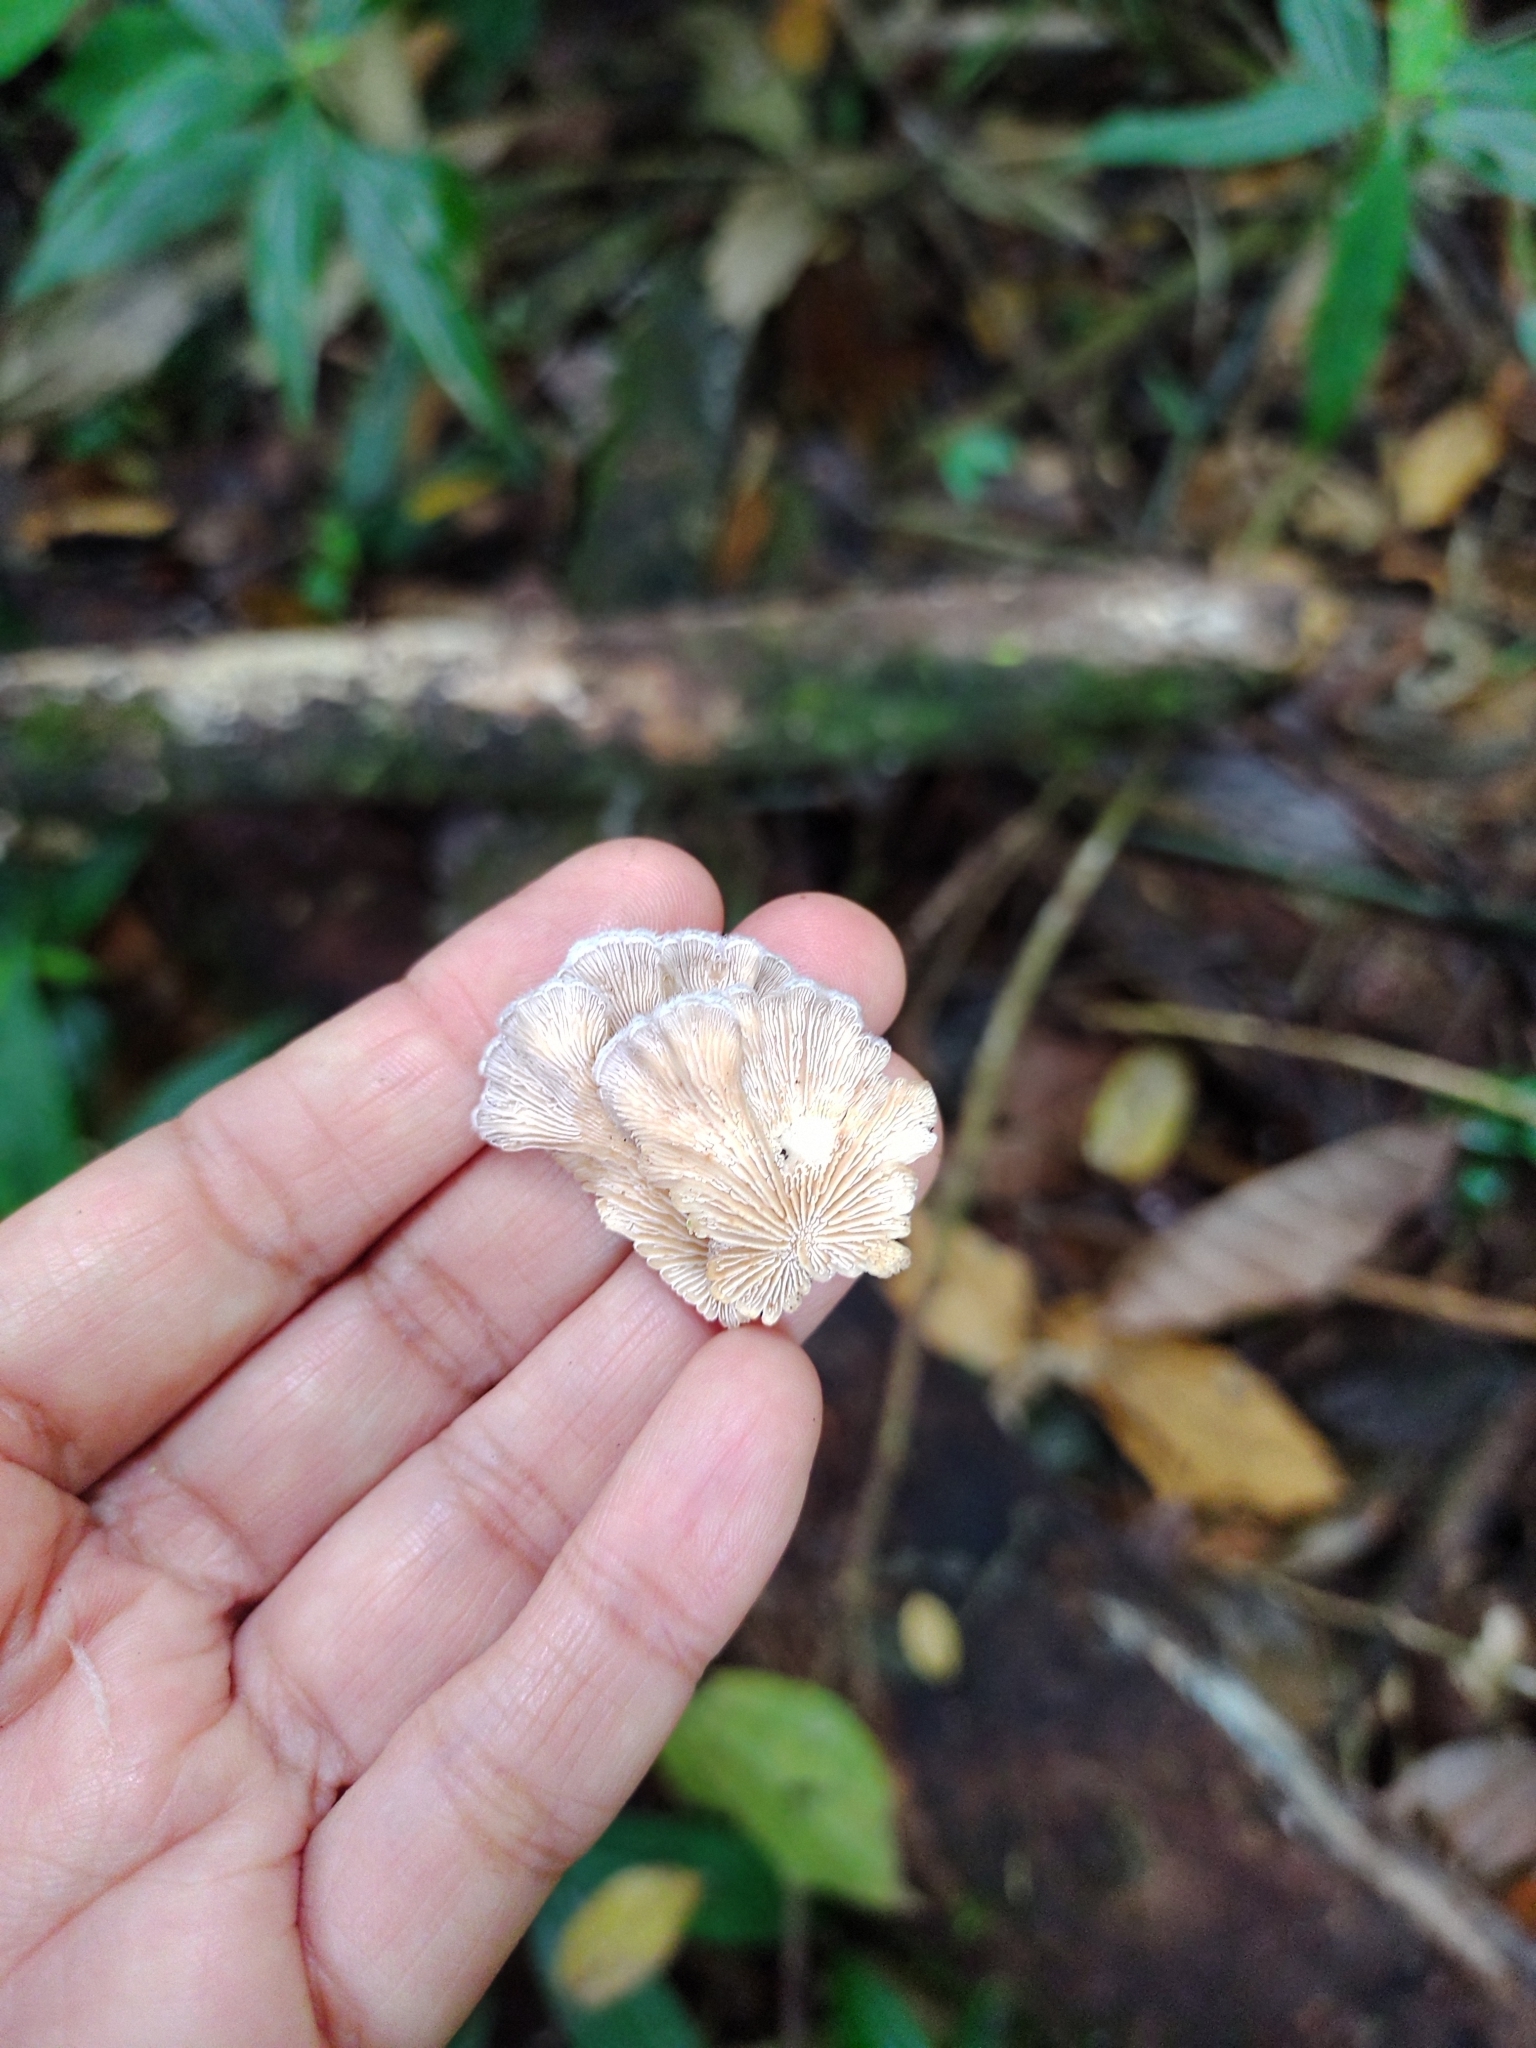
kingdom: Fungi
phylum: Basidiomycota
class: Agaricomycetes
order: Agaricales
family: Schizophyllaceae
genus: Schizophyllum
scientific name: Schizophyllum commune
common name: Common porecrust
